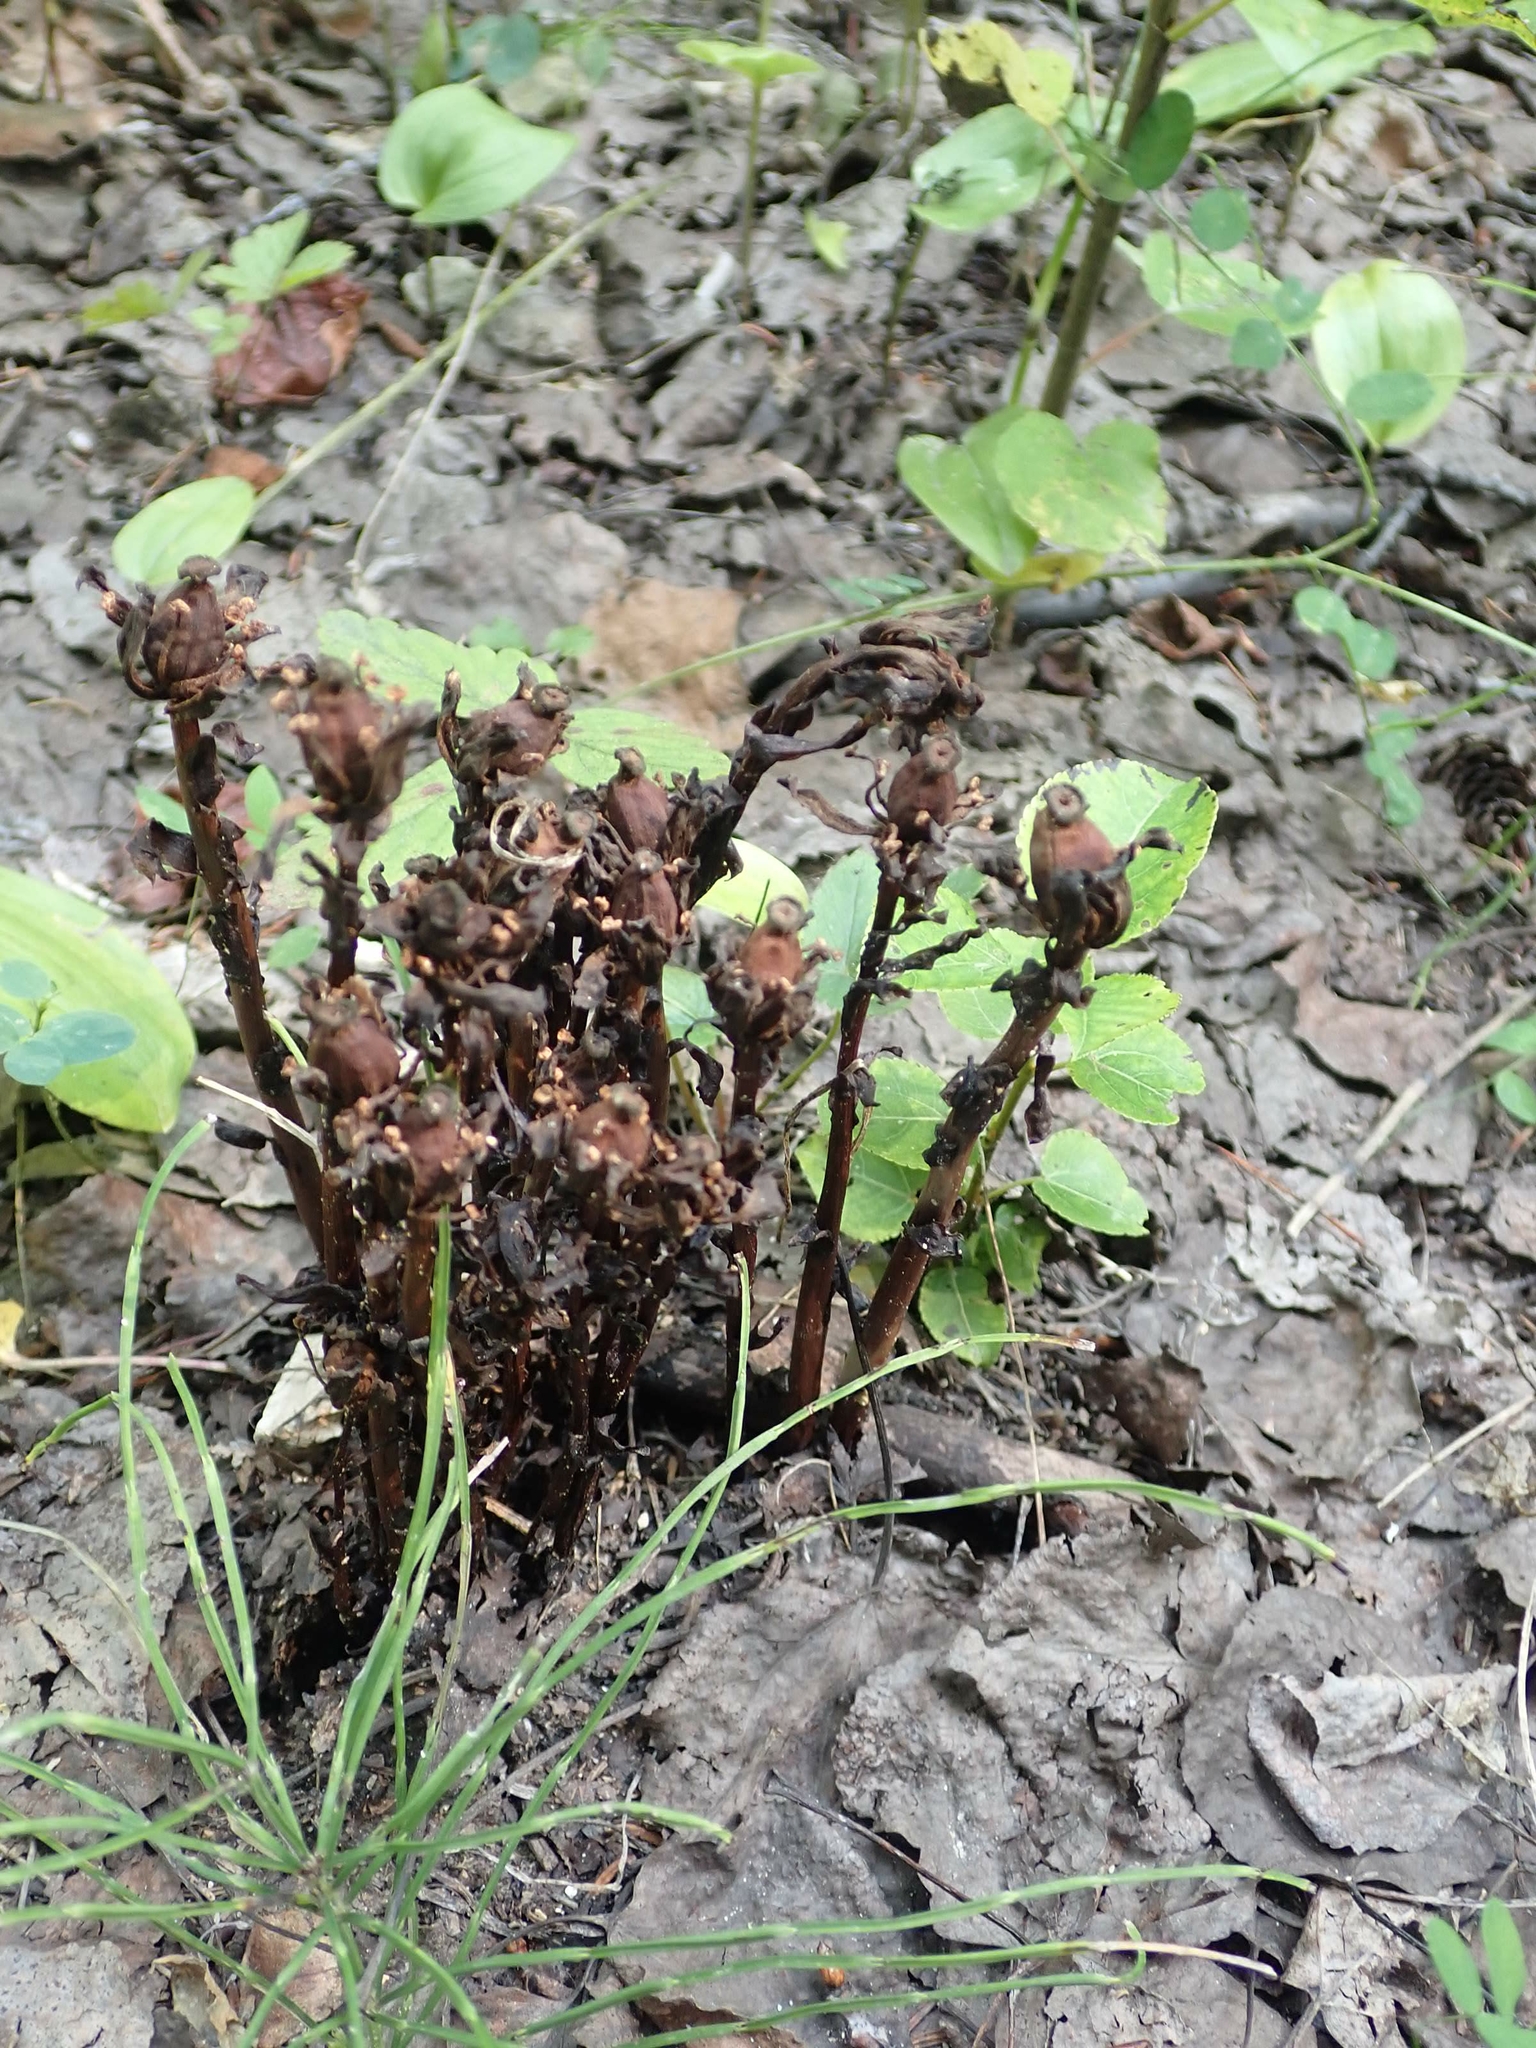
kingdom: Plantae
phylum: Tracheophyta
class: Magnoliopsida
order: Ericales
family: Ericaceae
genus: Monotropa
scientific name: Monotropa uniflora
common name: Convulsion root
